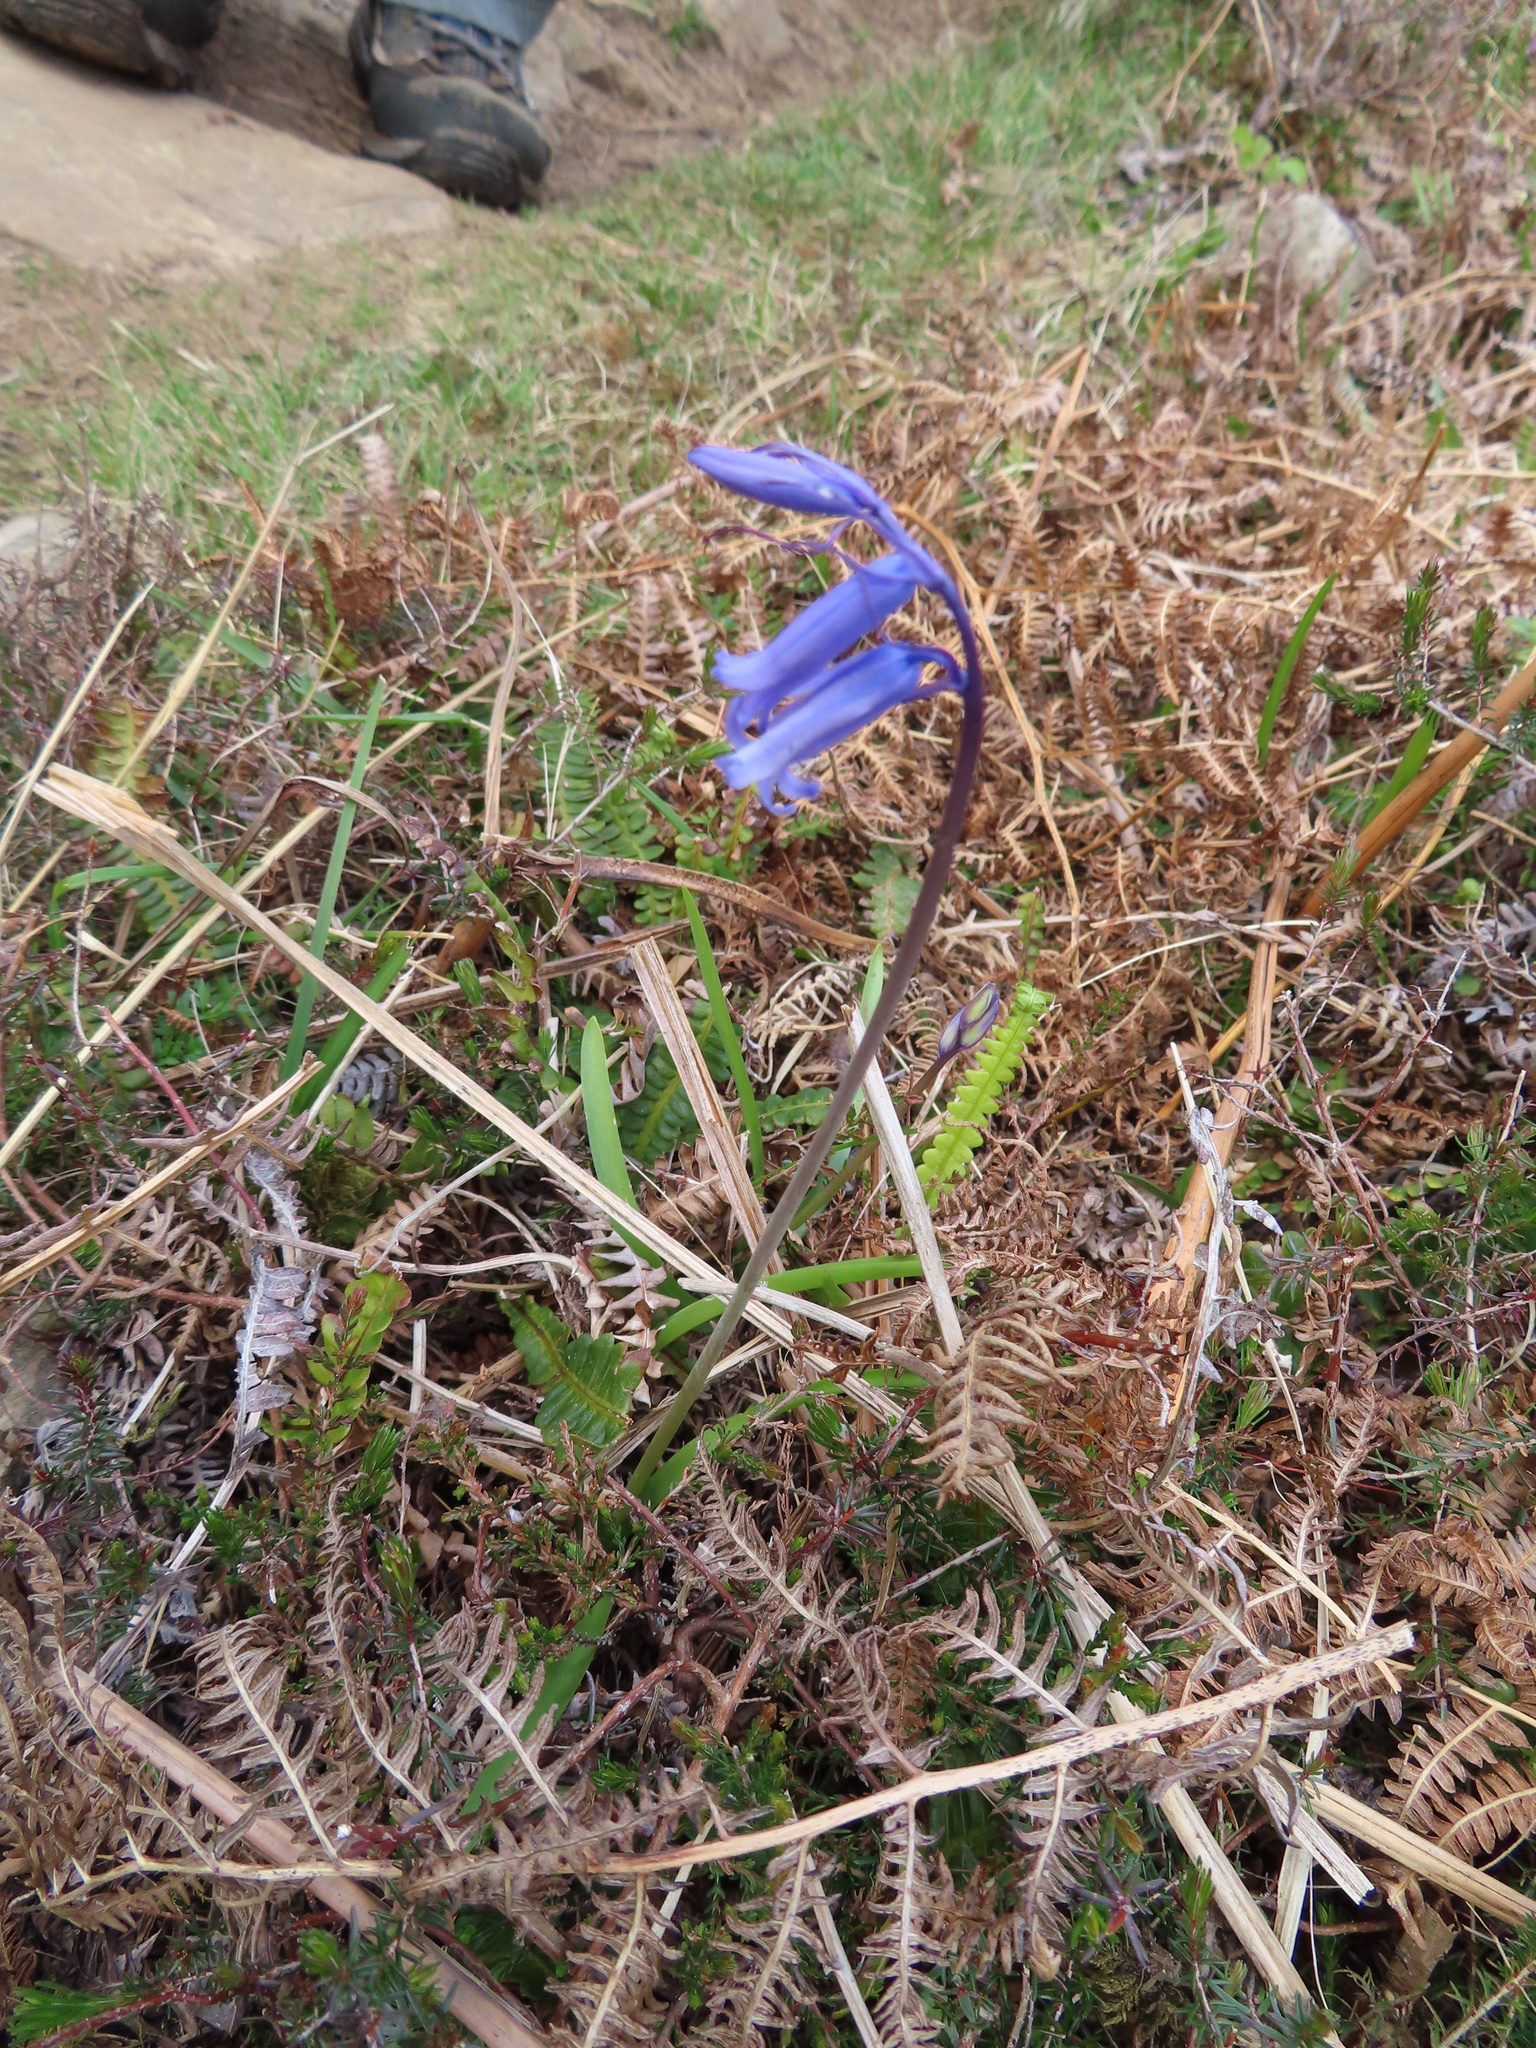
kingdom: Plantae
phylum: Tracheophyta
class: Liliopsida
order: Asparagales
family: Asparagaceae
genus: Hyacinthoides
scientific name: Hyacinthoides non-scripta
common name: Bluebell
